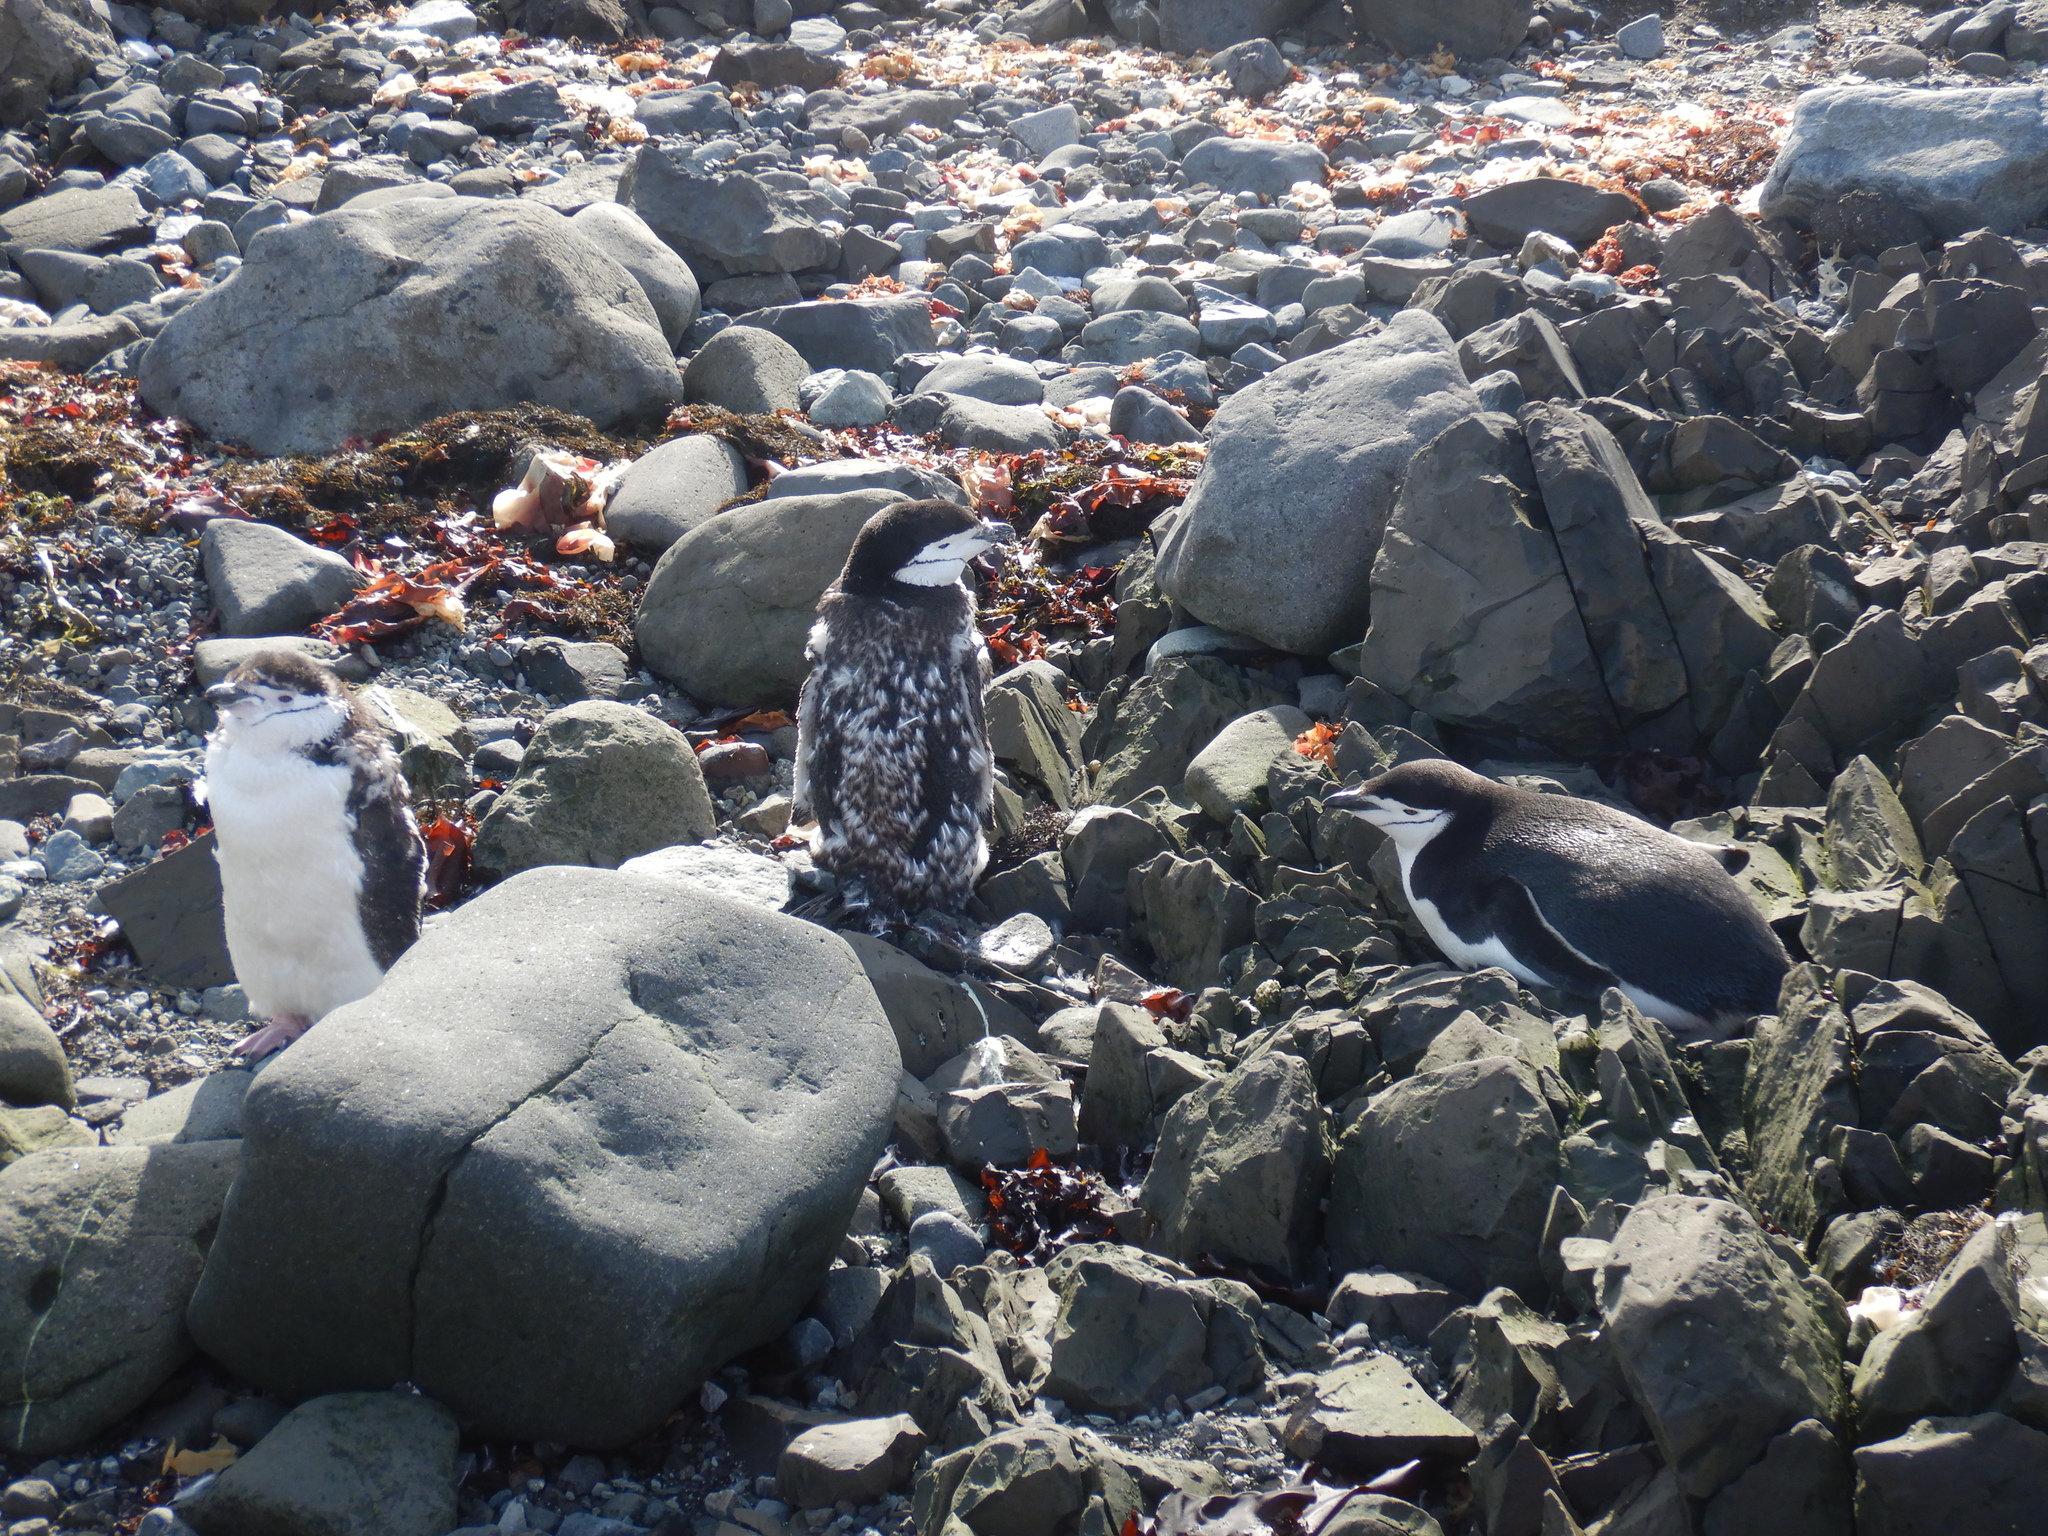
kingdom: Animalia
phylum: Chordata
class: Aves
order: Sphenisciformes
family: Spheniscidae
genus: Pygoscelis
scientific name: Pygoscelis antarcticus
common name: Chinstrap penguin
